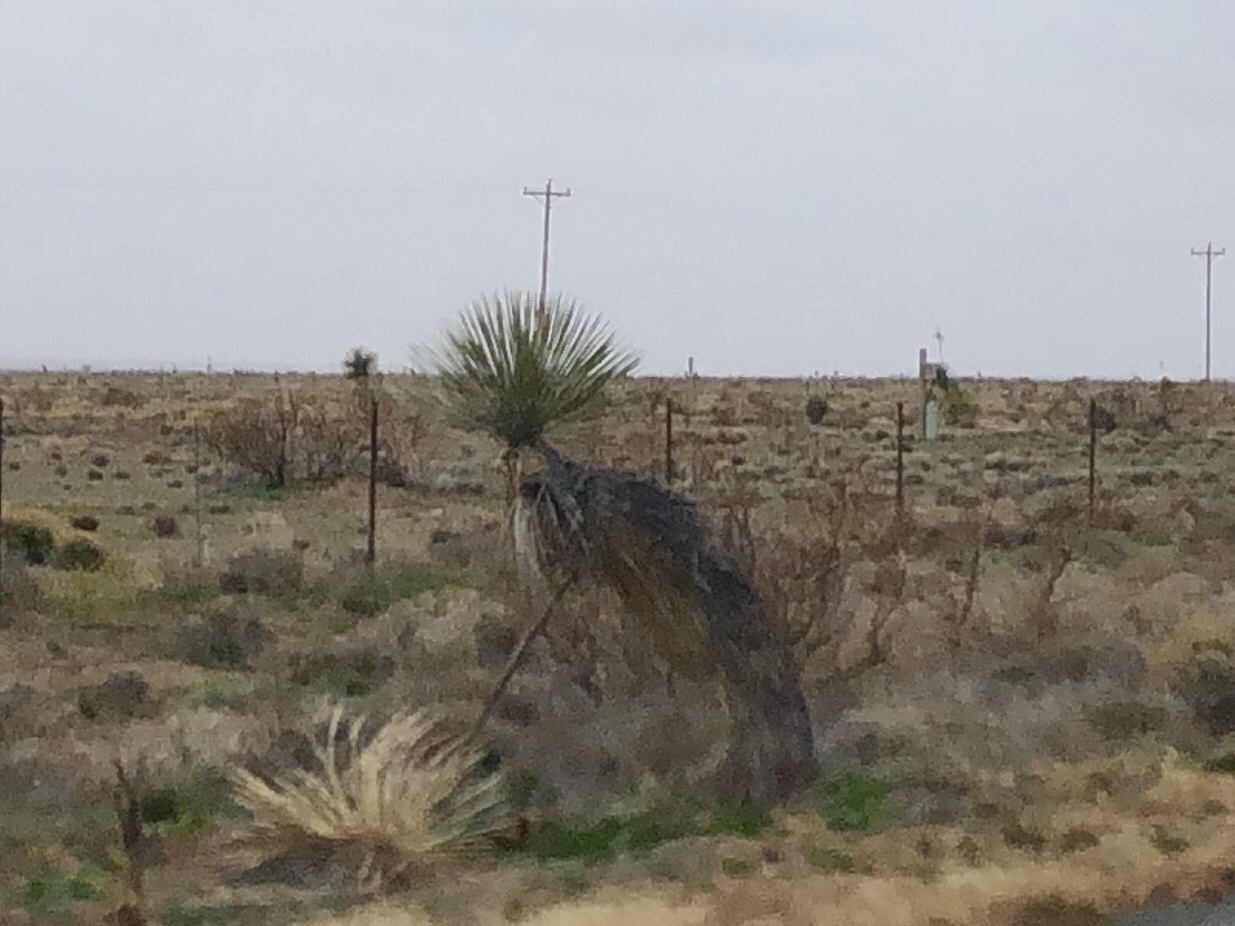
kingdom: Plantae
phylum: Tracheophyta
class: Liliopsida
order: Asparagales
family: Asparagaceae
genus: Yucca
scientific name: Yucca elata
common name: Palmella
